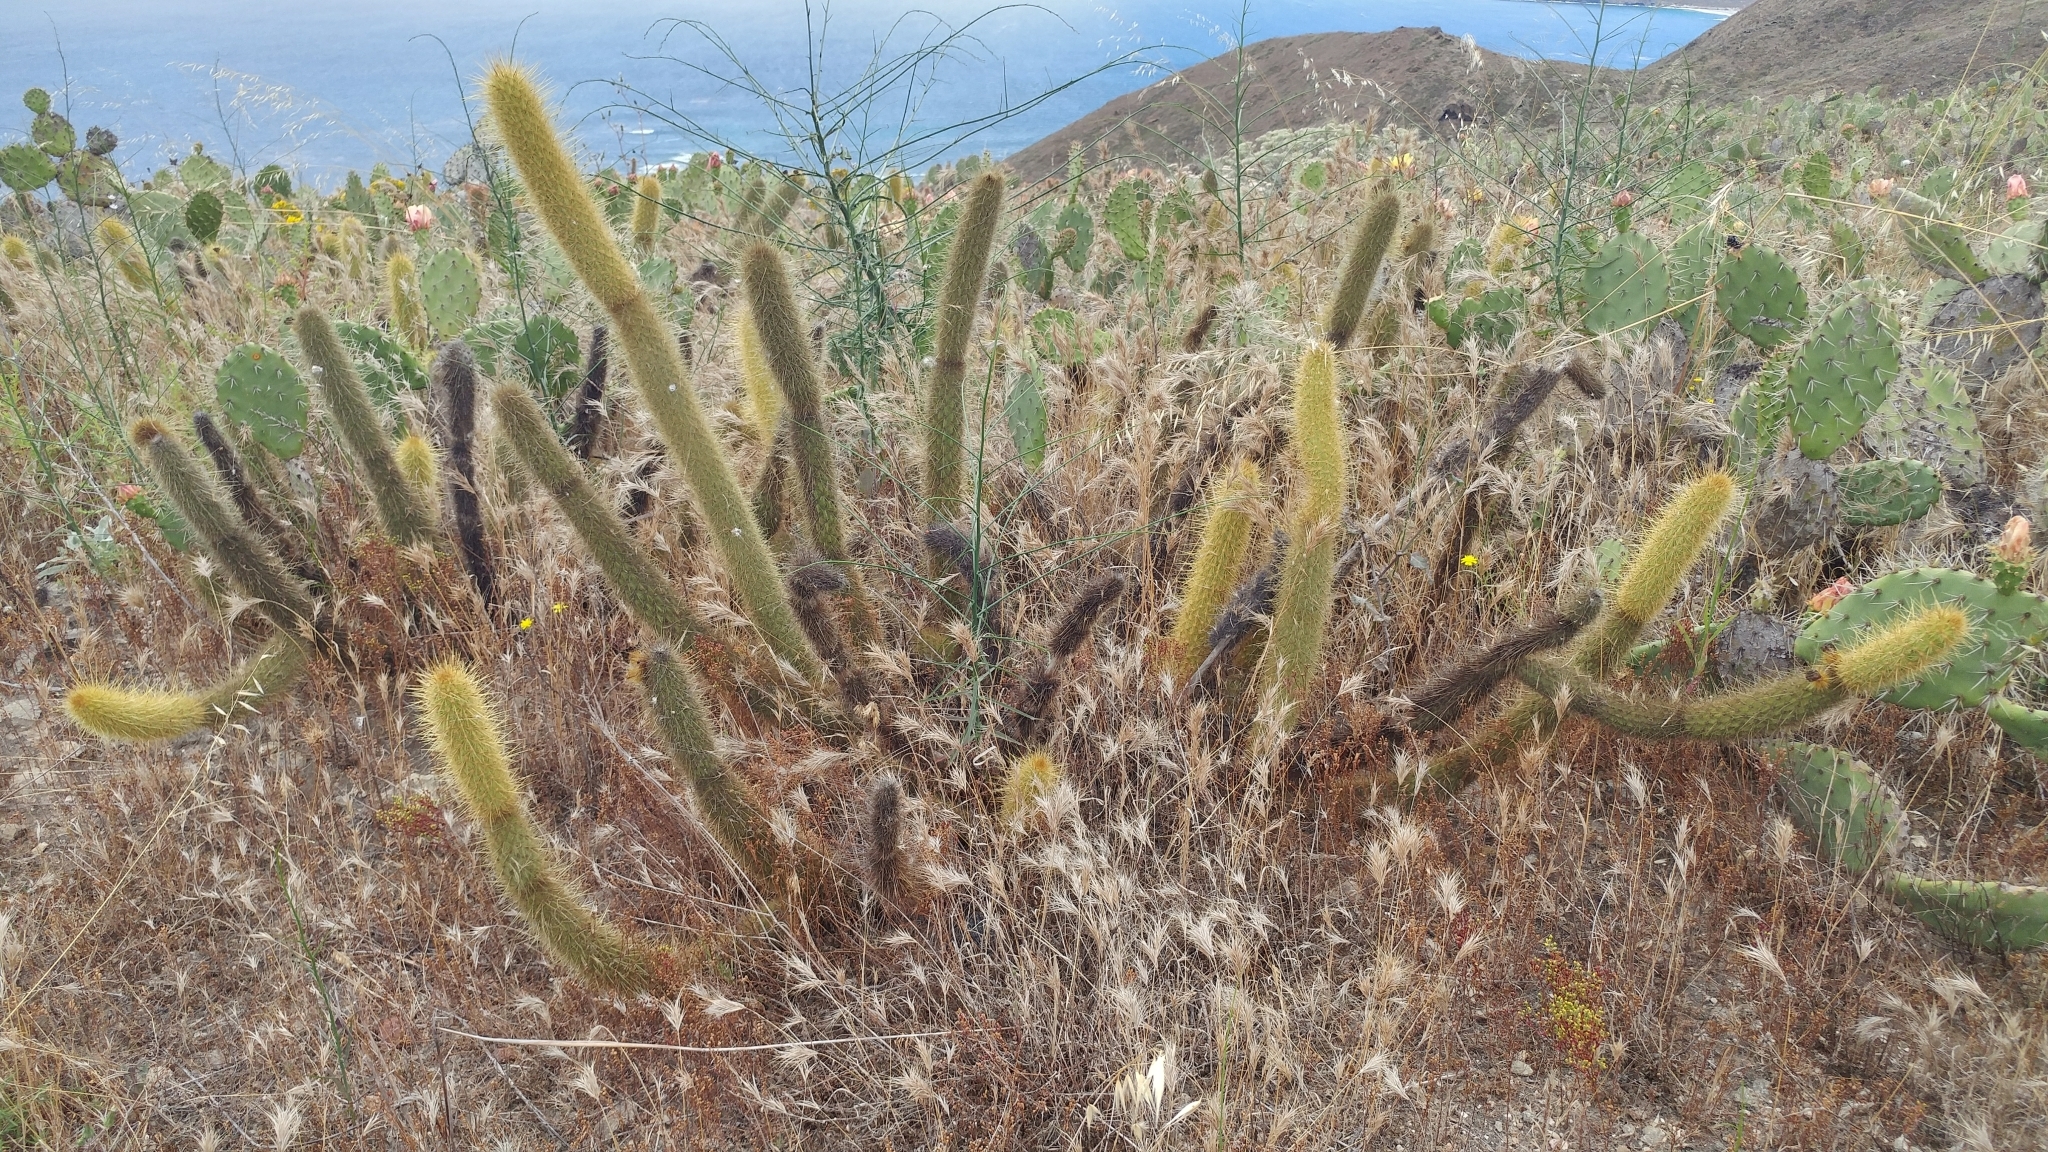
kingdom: Plantae
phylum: Tracheophyta
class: Magnoliopsida
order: Caryophyllales
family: Cactaceae
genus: Bergerocactus
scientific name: Bergerocactus emoryi
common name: Golden snakecactus
